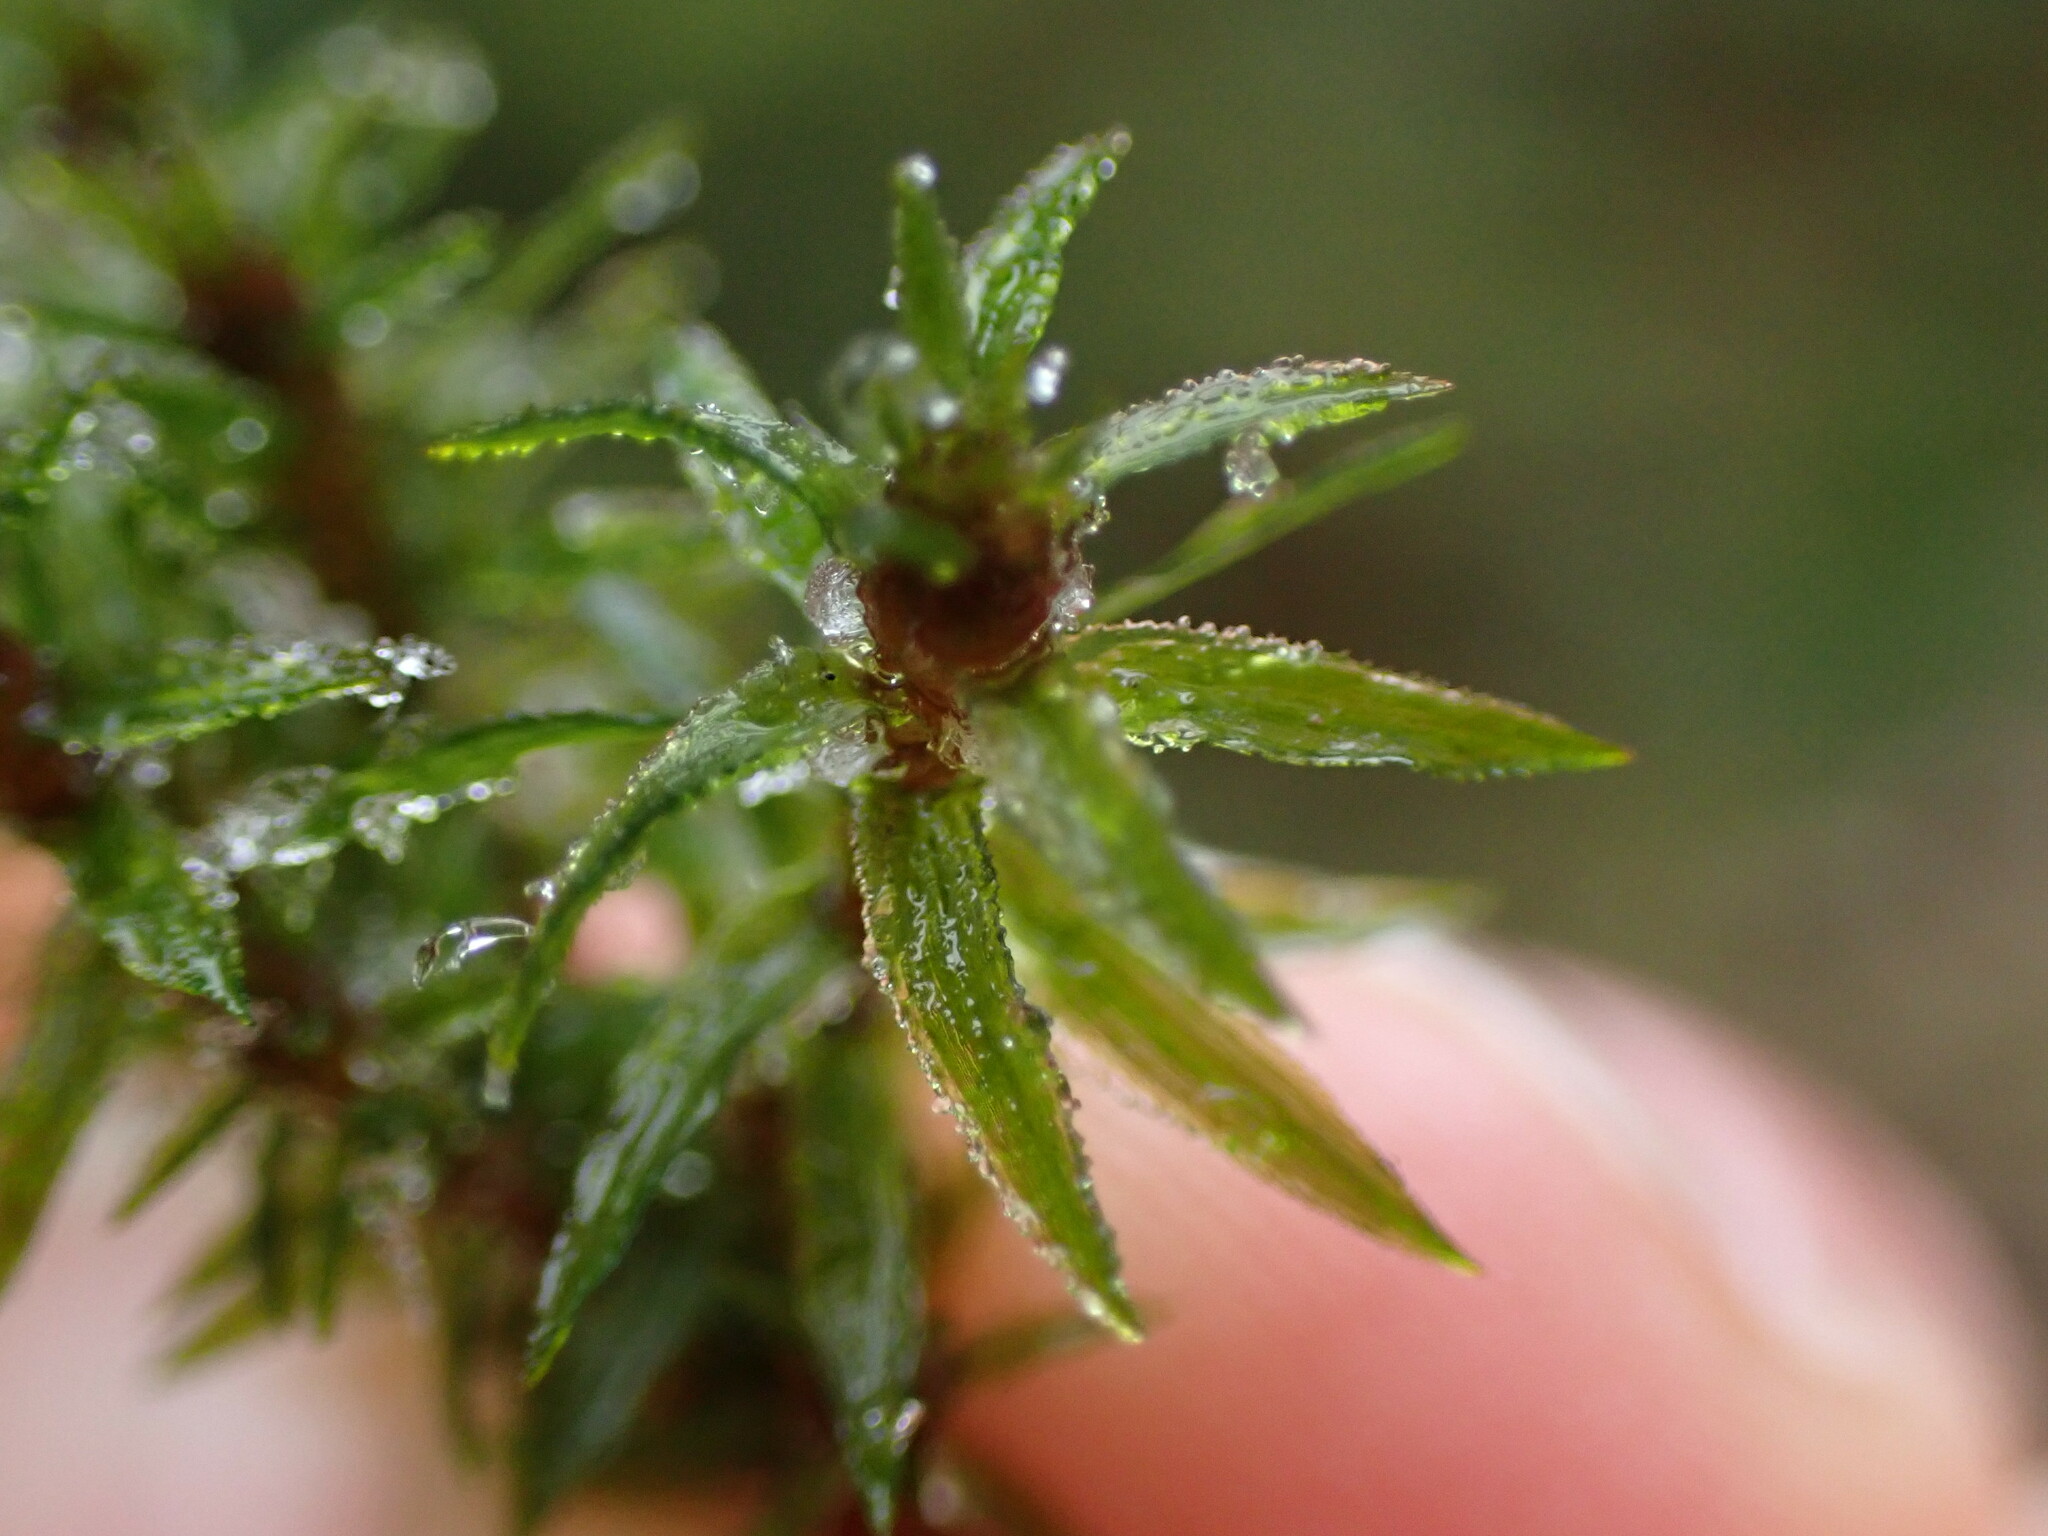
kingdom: Plantae
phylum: Bryophyta
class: Polytrichopsida
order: Polytrichales
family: Polytrichaceae
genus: Pogonatum
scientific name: Pogonatum contortum
